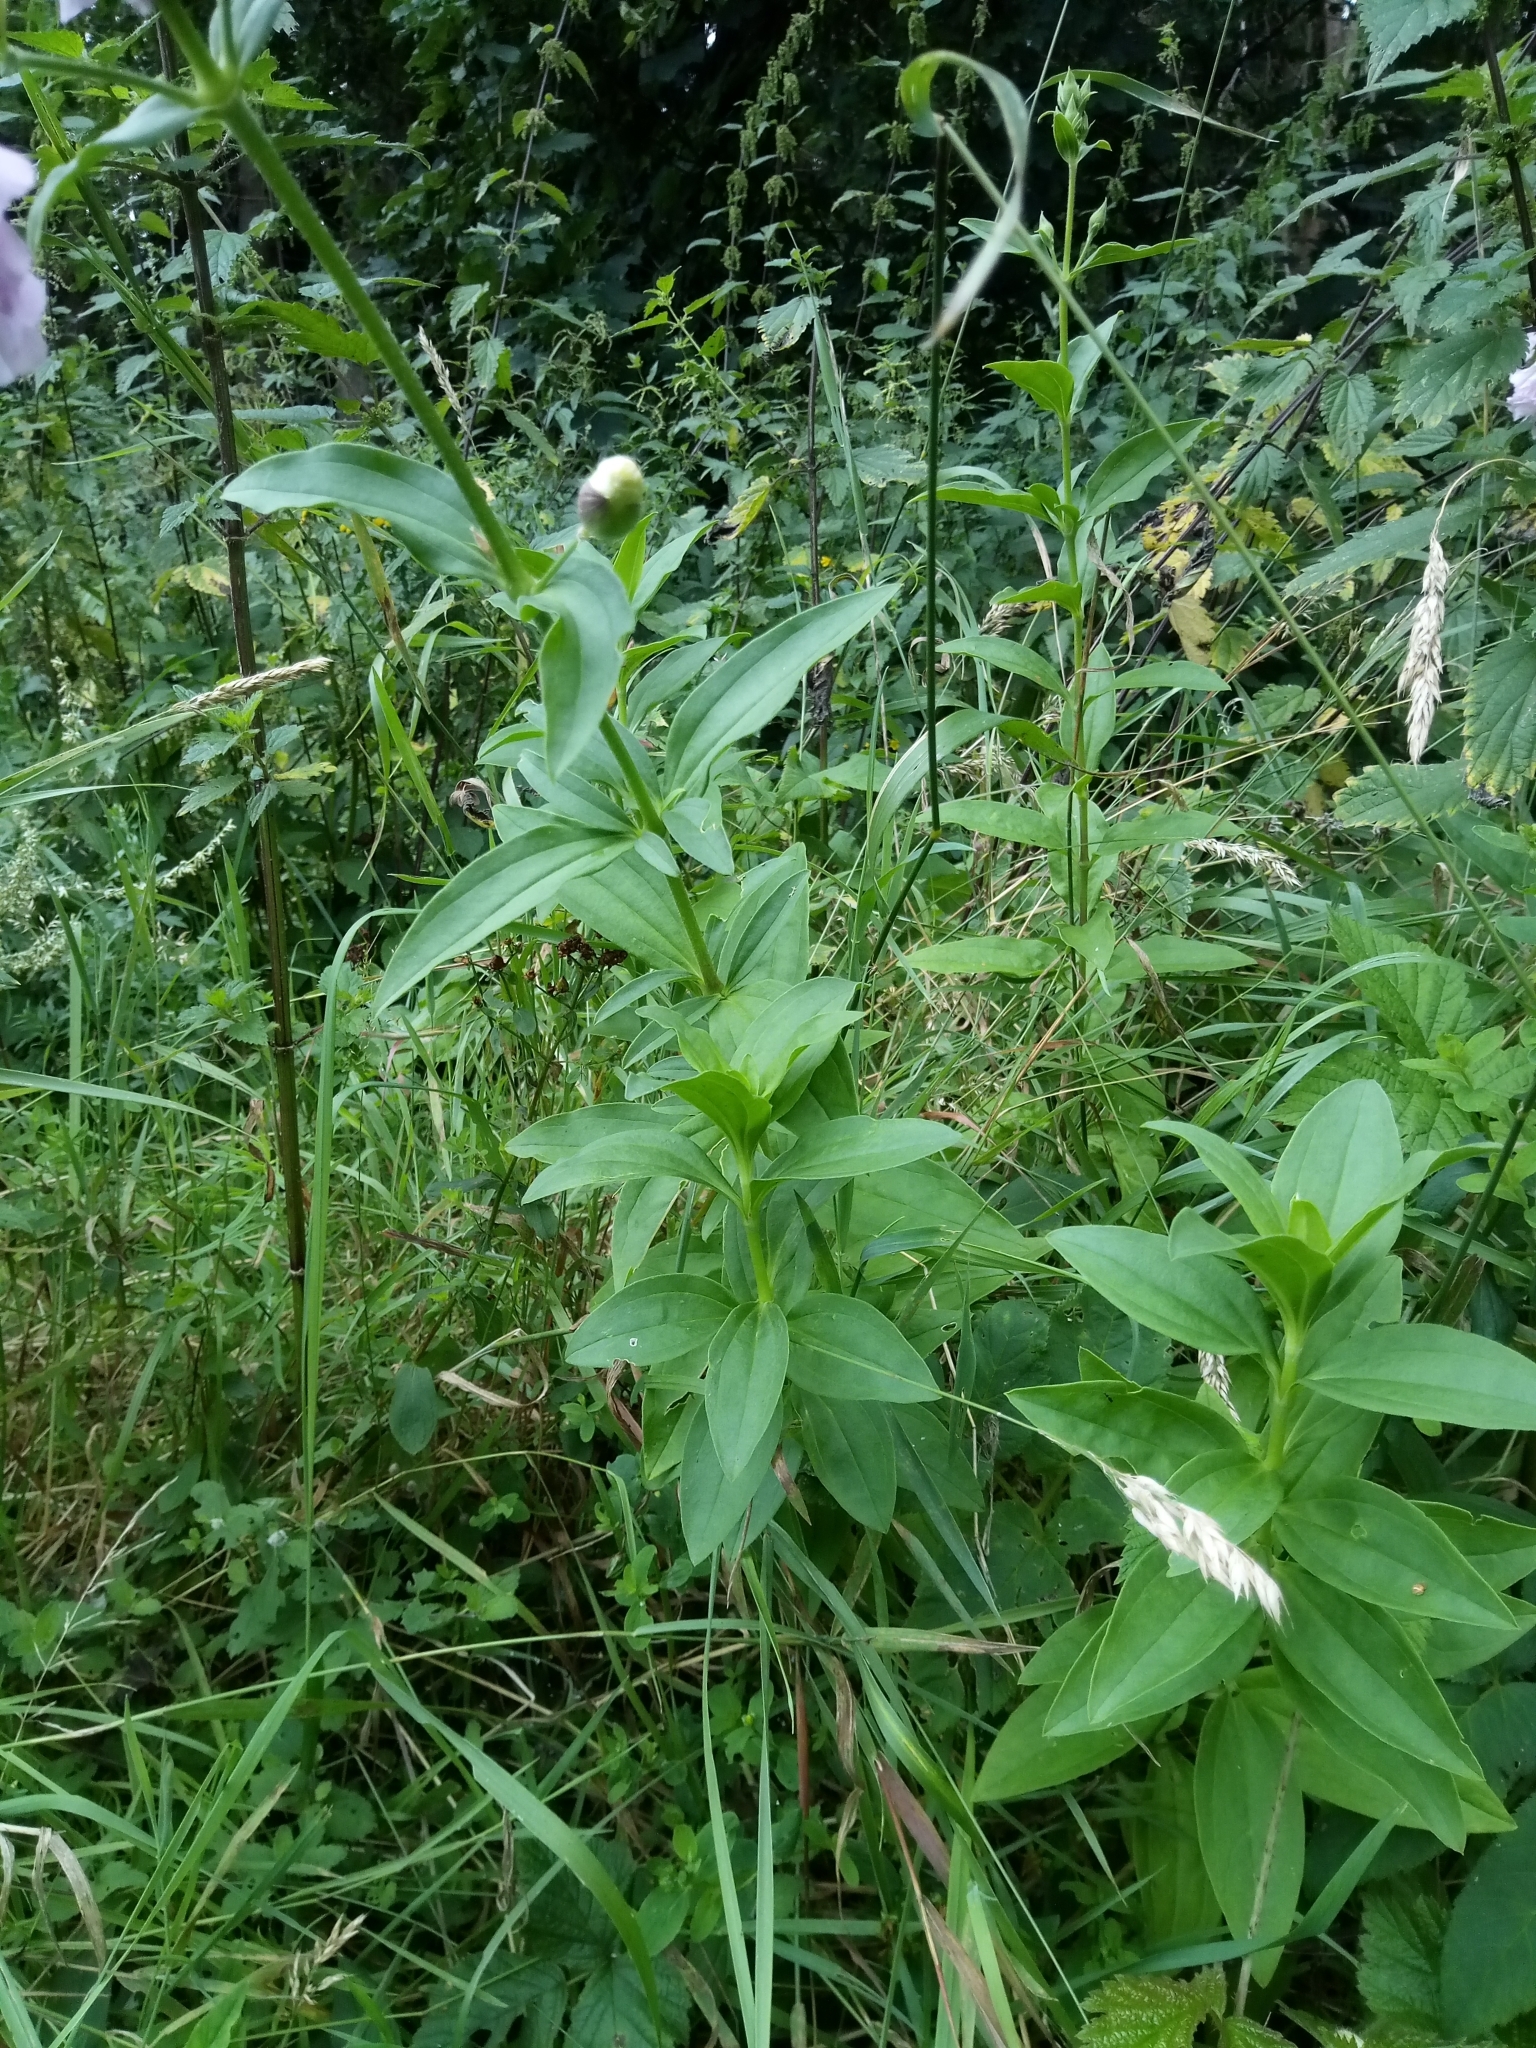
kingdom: Plantae
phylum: Tracheophyta
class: Magnoliopsida
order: Caryophyllales
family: Caryophyllaceae
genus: Saponaria
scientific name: Saponaria officinalis
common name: Soapwort
